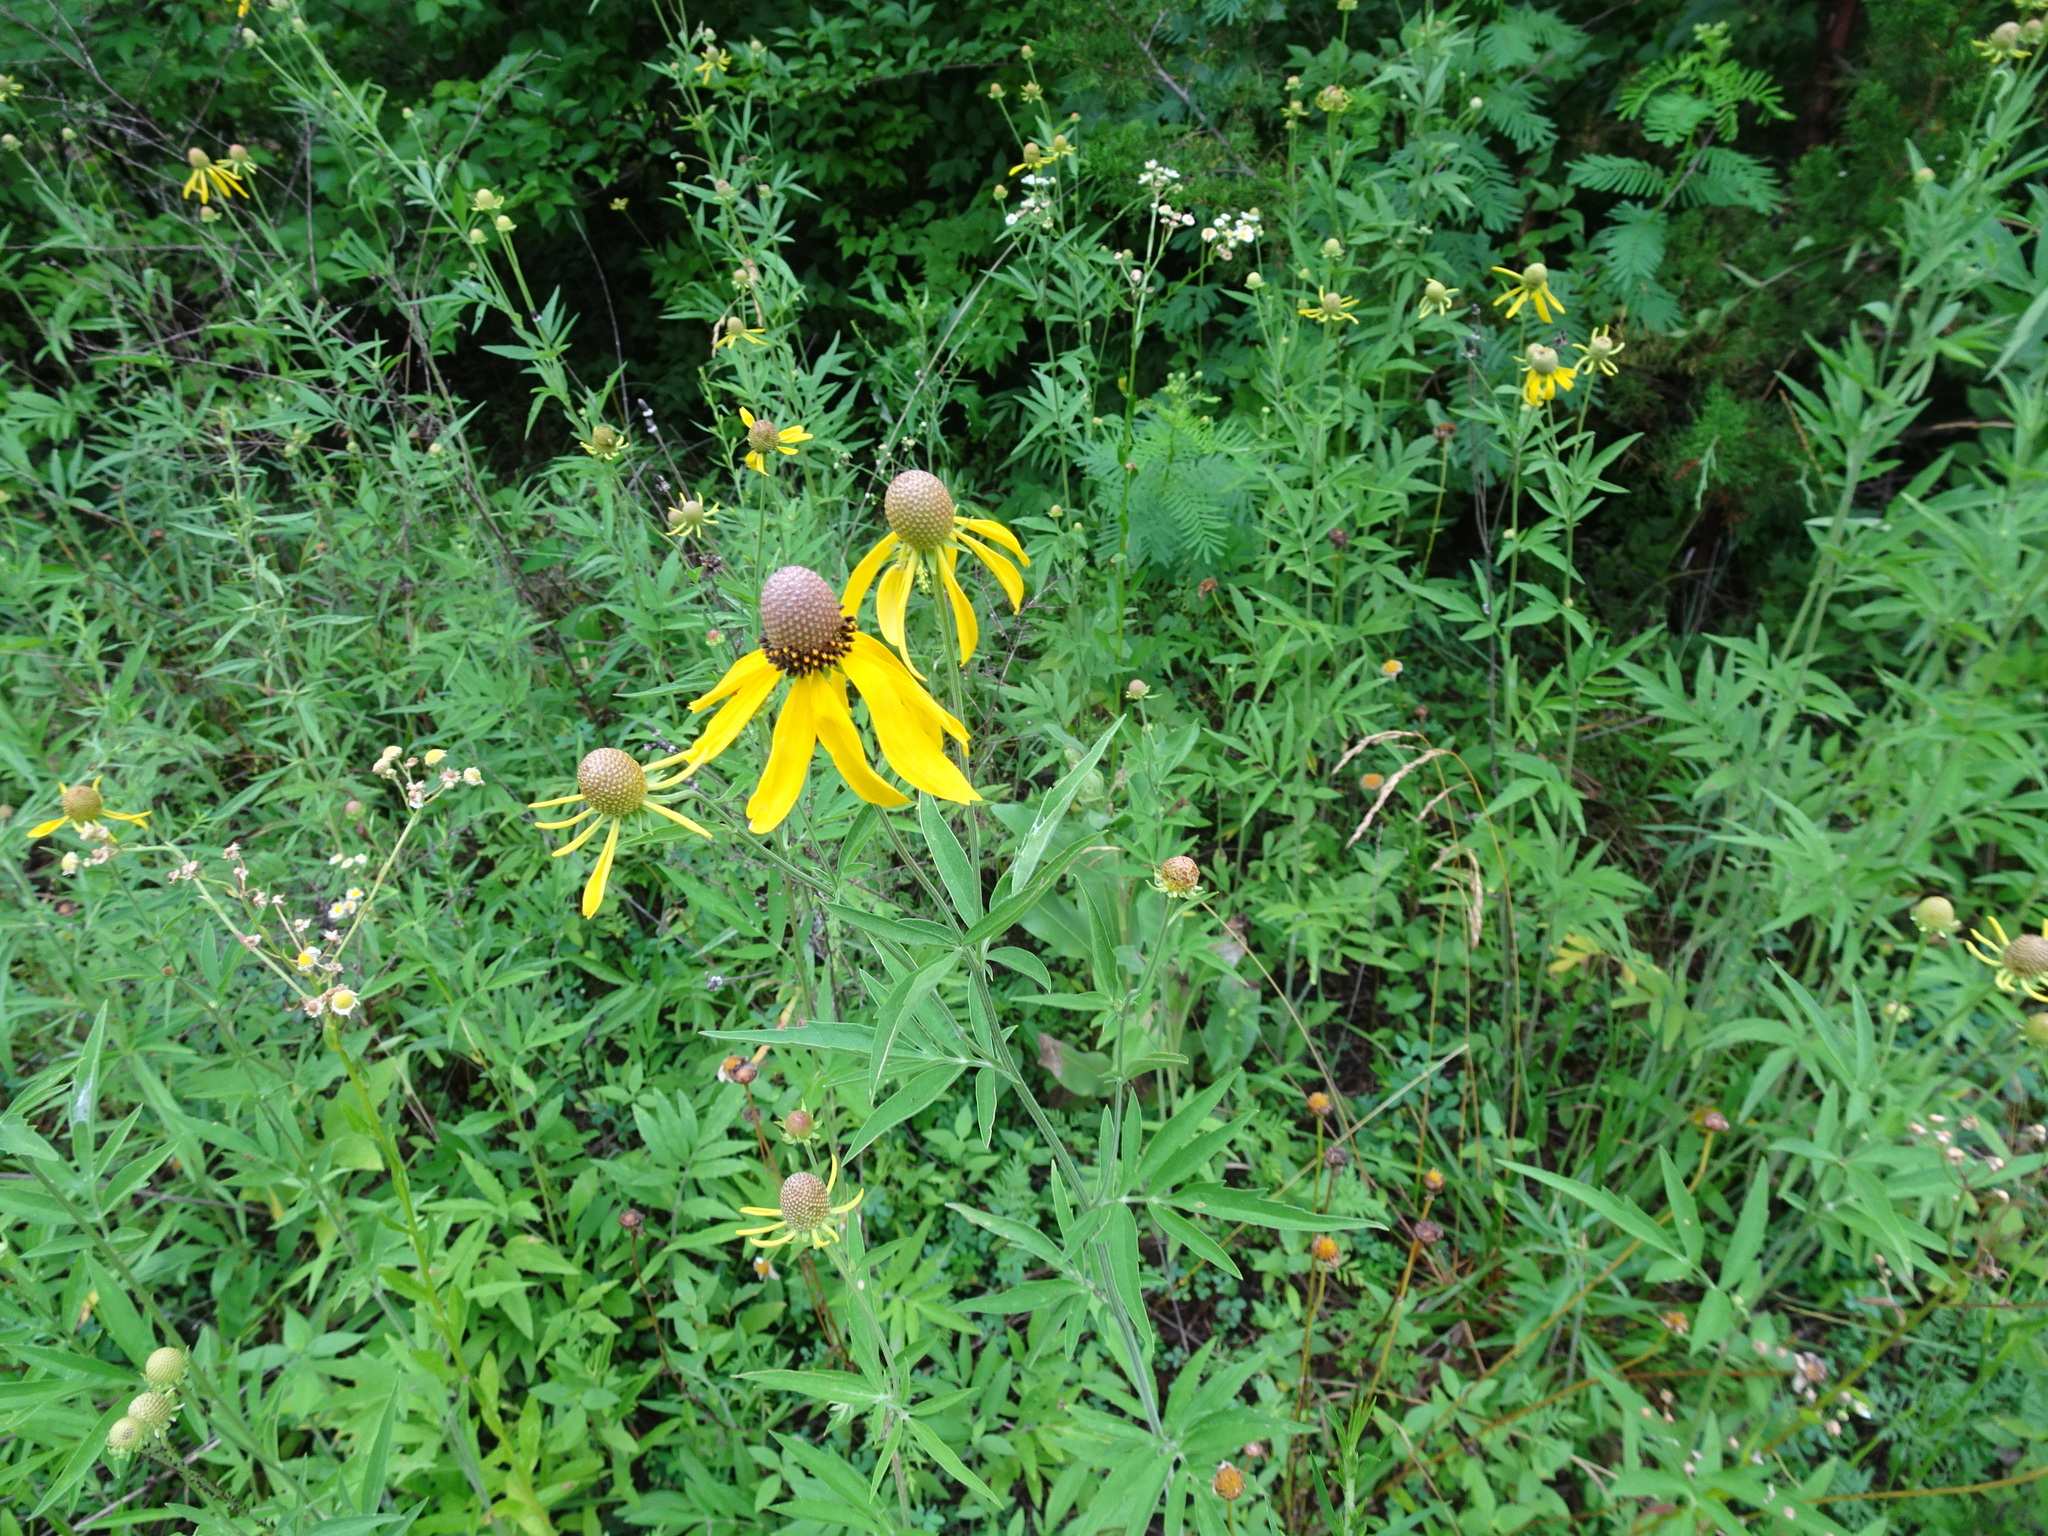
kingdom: Plantae
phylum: Tracheophyta
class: Magnoliopsida
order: Asterales
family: Asteraceae
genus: Ratibida
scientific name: Ratibida pinnata
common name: Drooping prairie-coneflower
